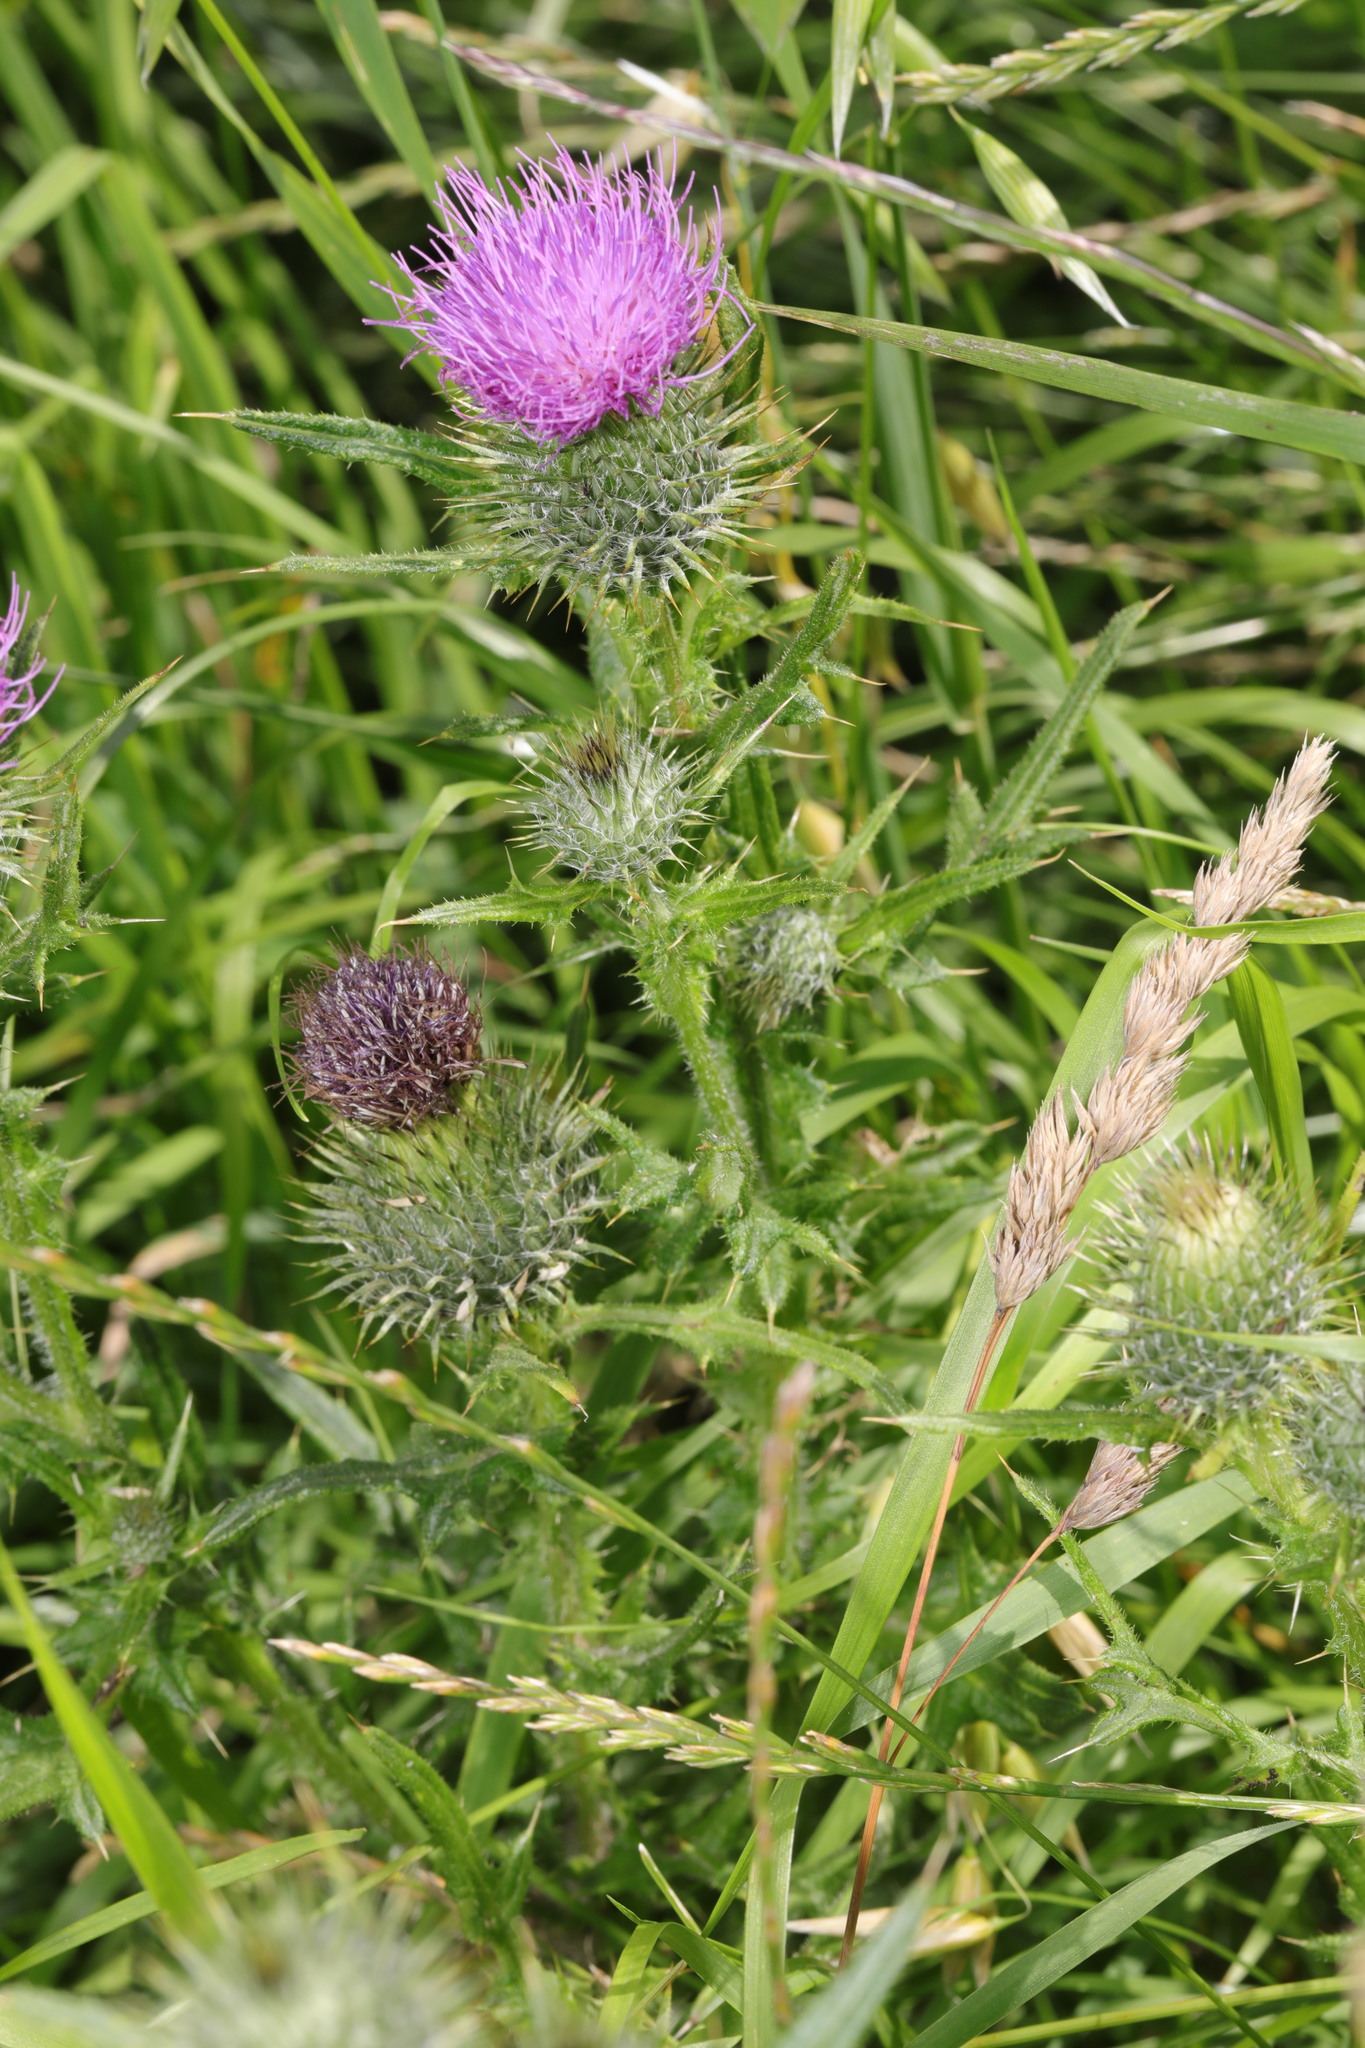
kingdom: Plantae
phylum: Tracheophyta
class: Magnoliopsida
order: Asterales
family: Asteraceae
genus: Cirsium
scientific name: Cirsium vulgare
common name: Bull thistle
